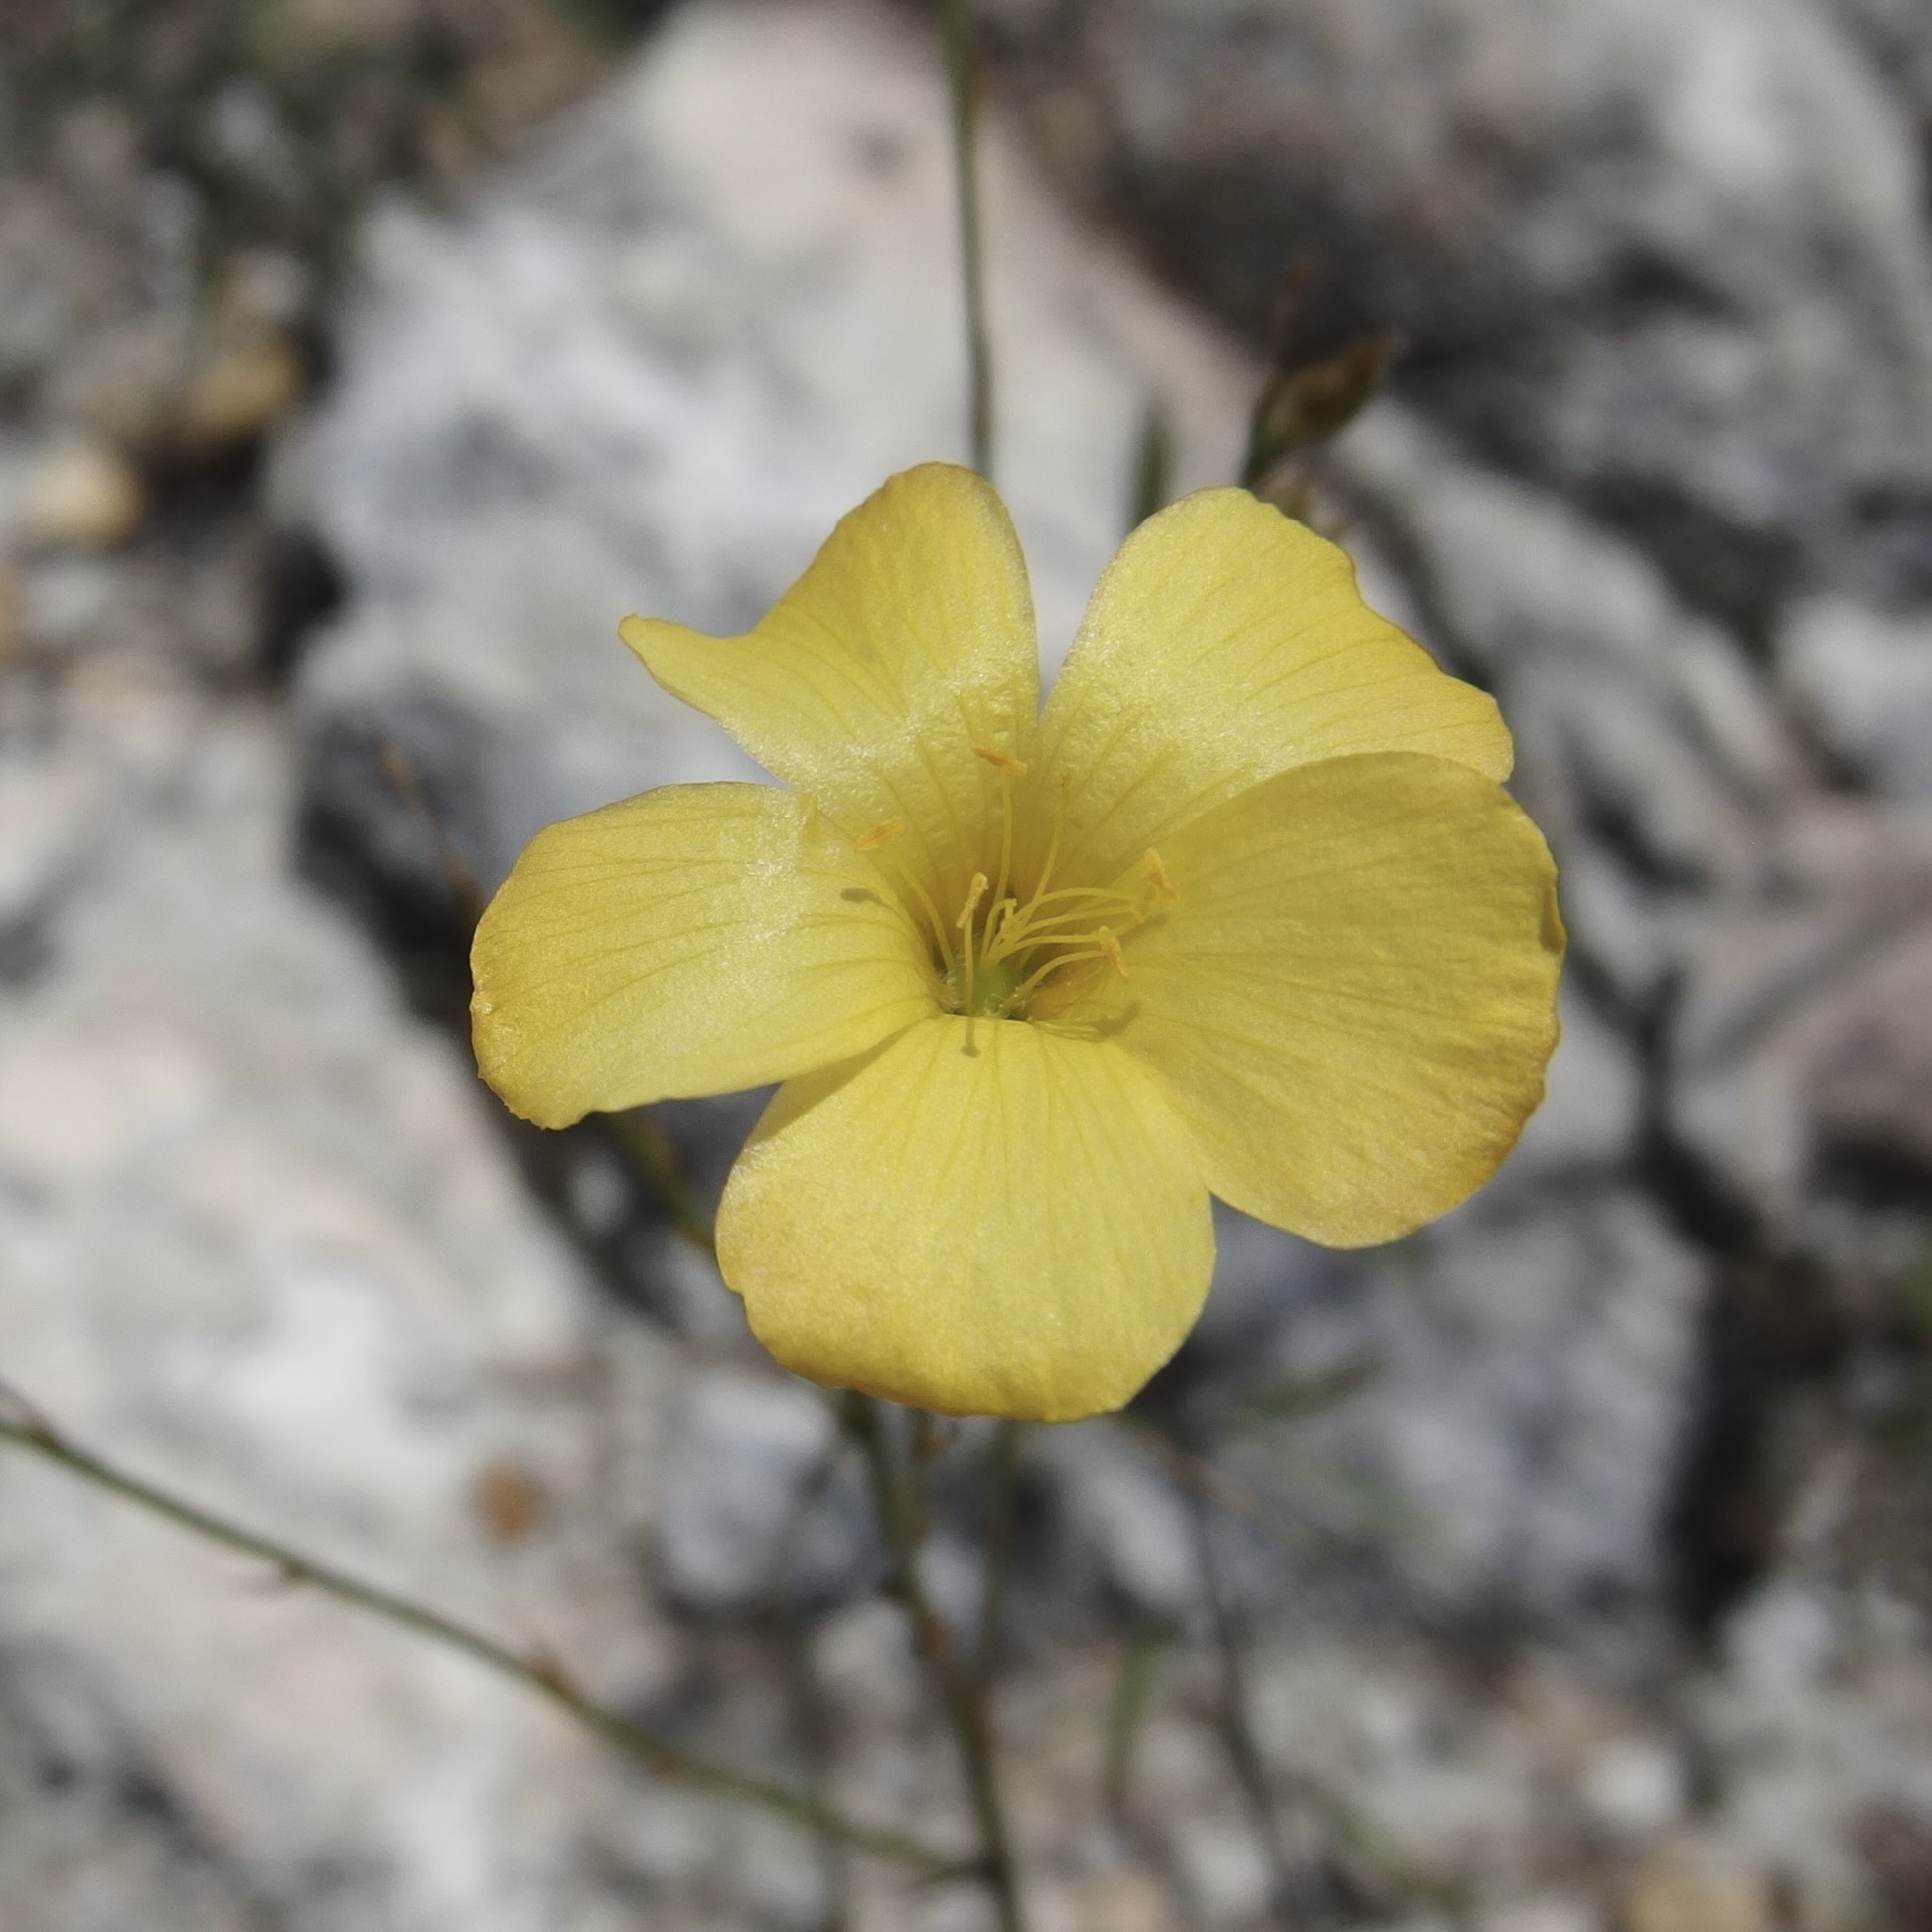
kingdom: Plantae
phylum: Tracheophyta
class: Magnoliopsida
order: Malpighiales
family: Linaceae
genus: Linum
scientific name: Linum rupestre
